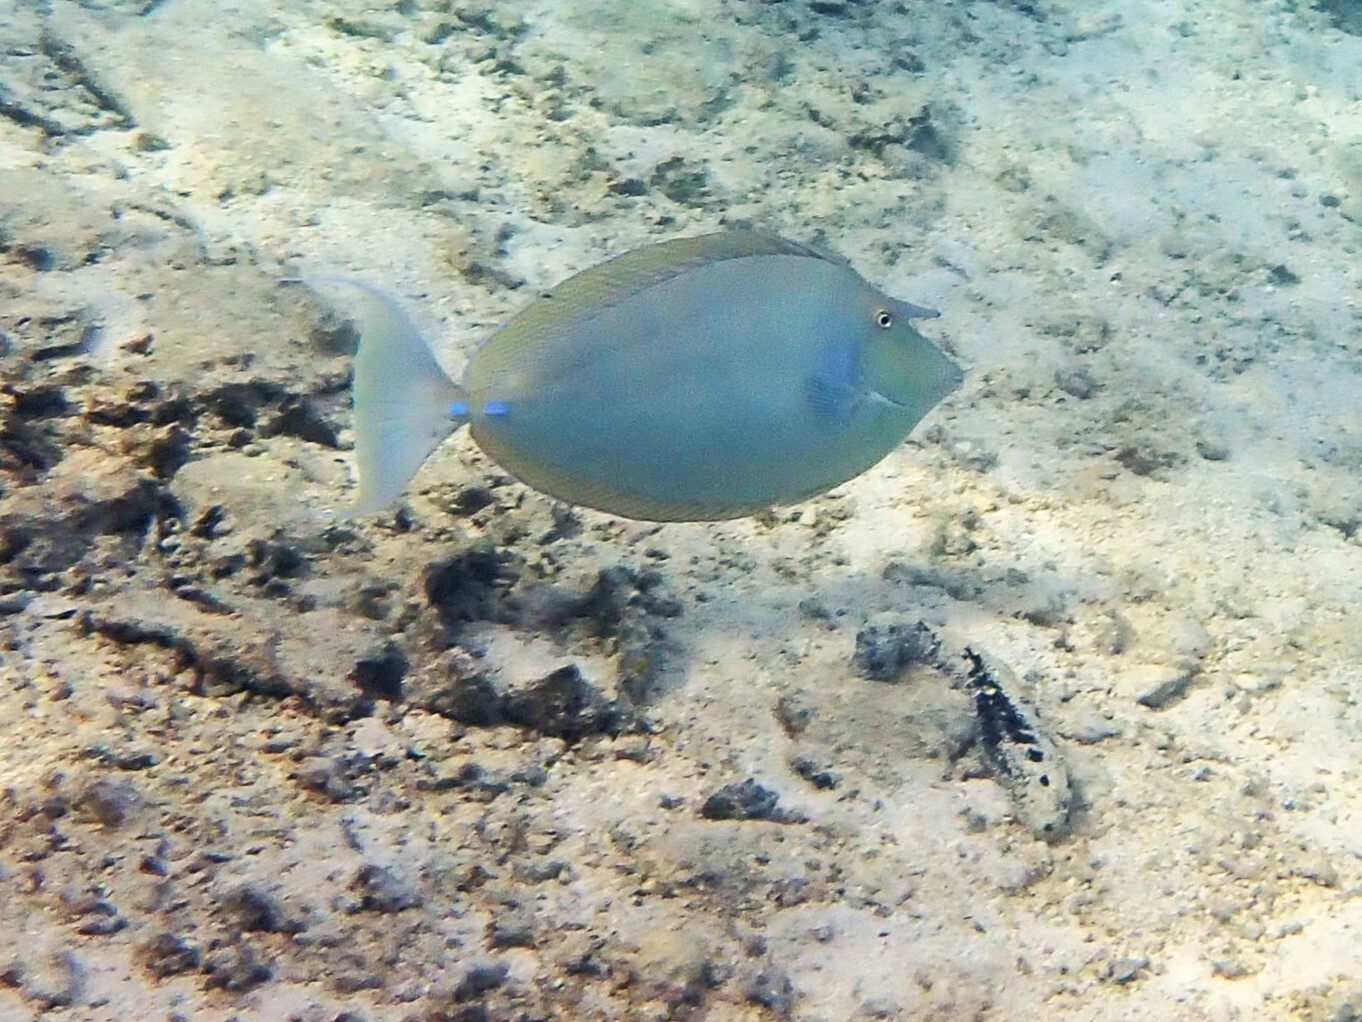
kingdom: Animalia
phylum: Chordata
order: Perciformes
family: Acanthuridae
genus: Naso
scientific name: Naso unicornis
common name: Bluespine unicornfish
